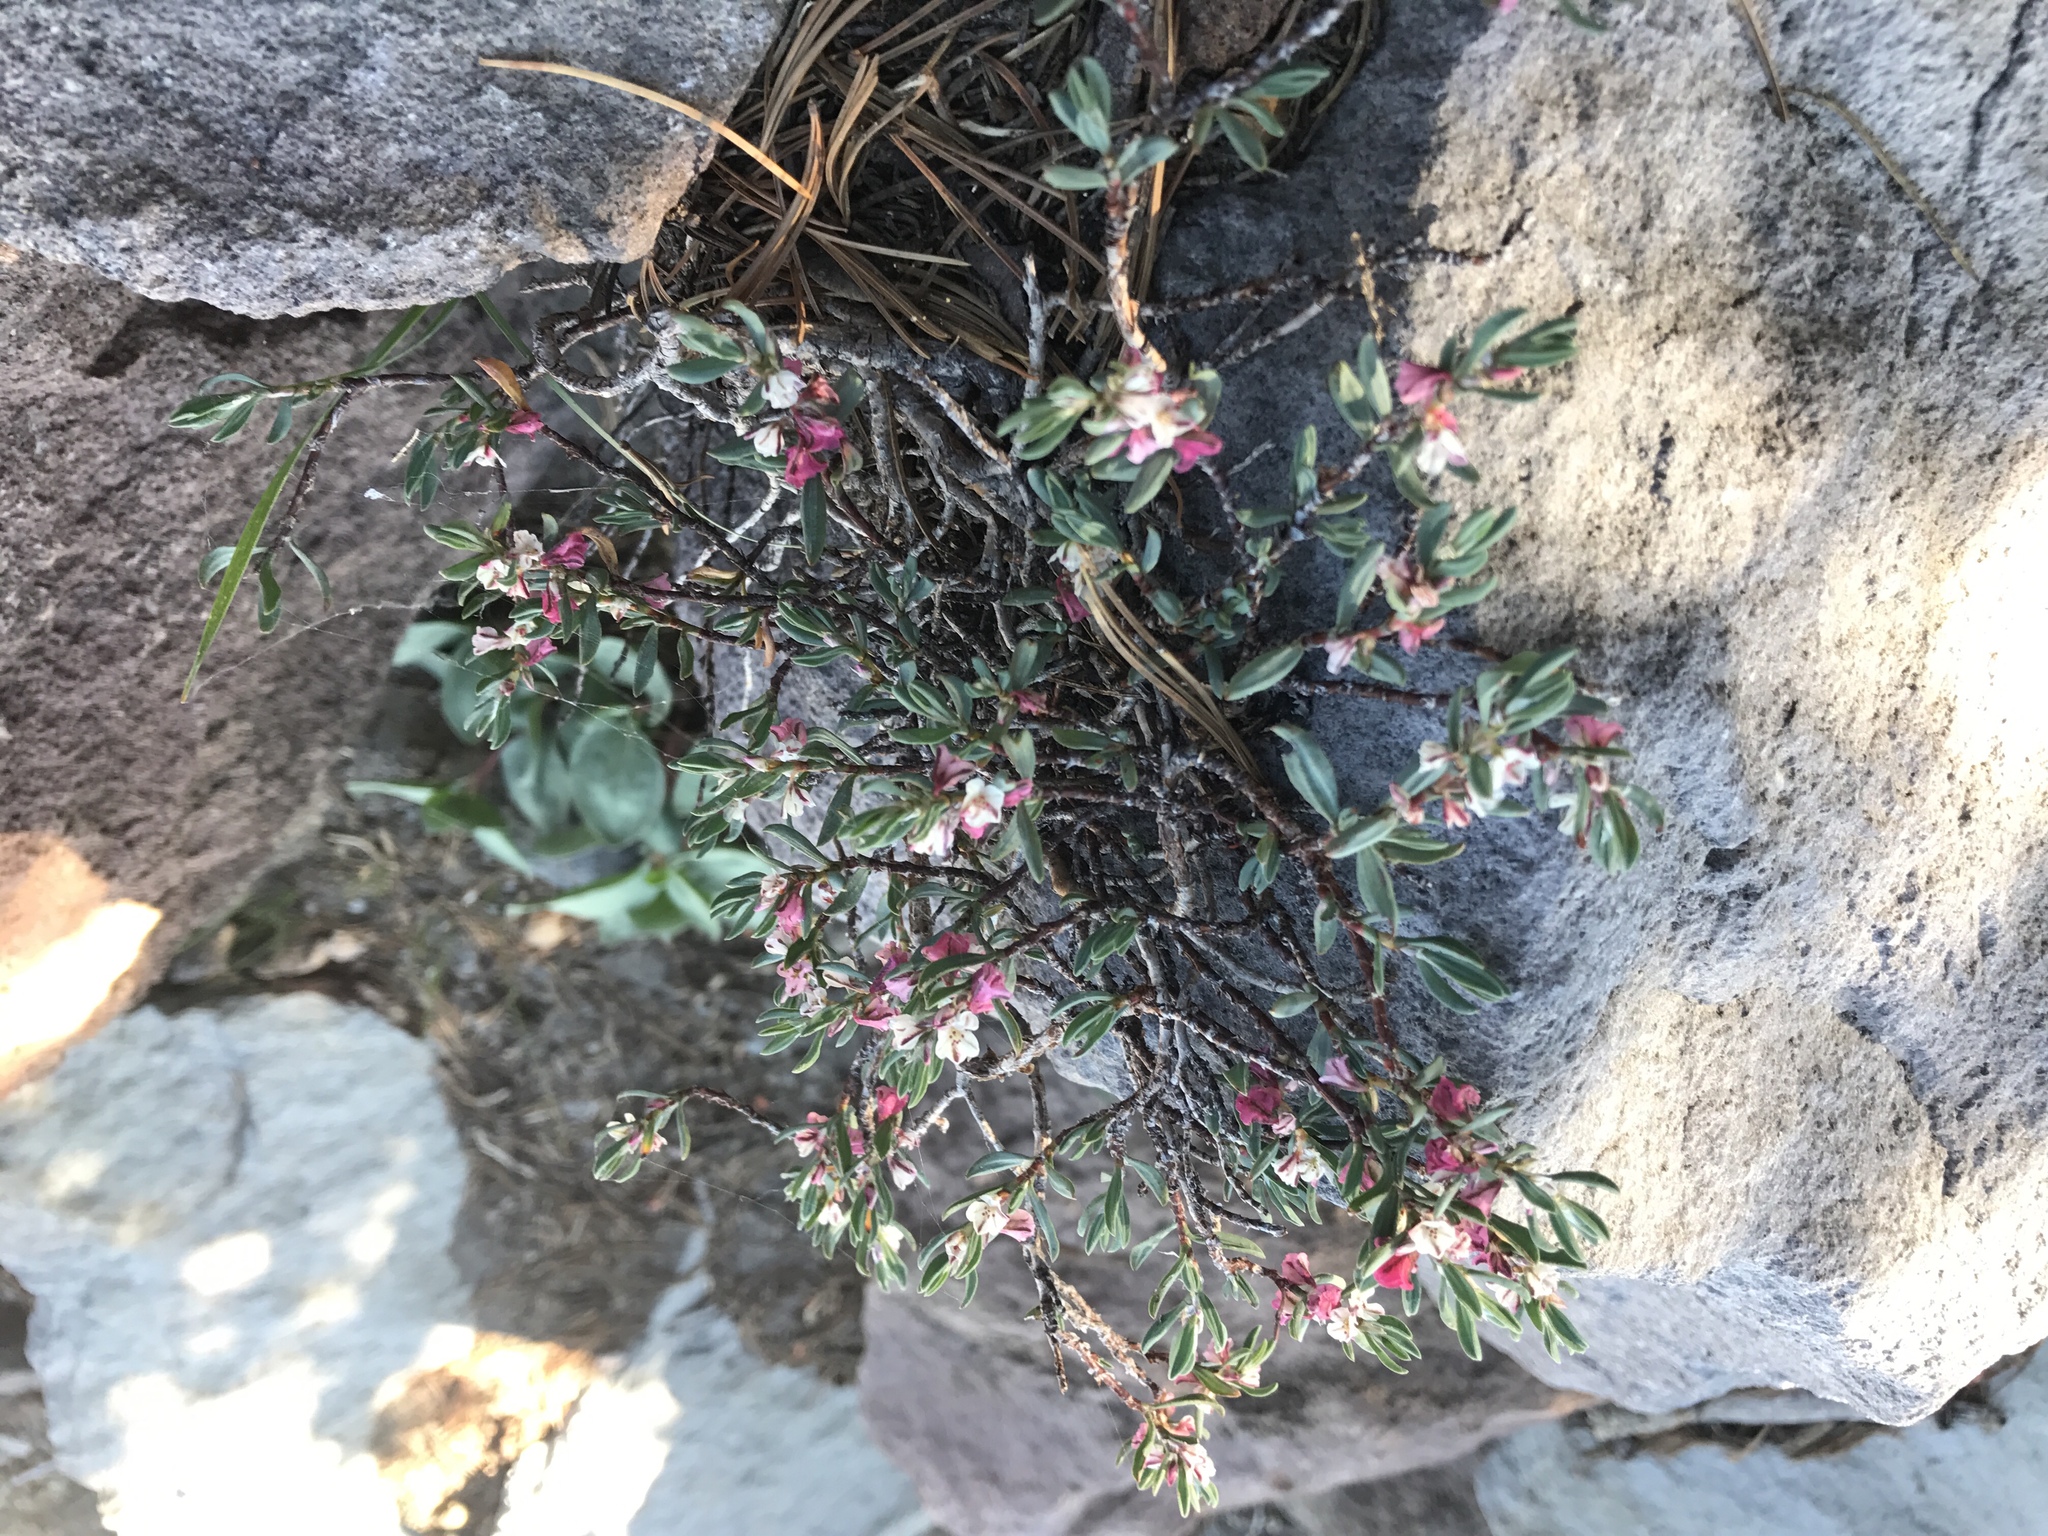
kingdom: Plantae
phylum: Tracheophyta
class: Magnoliopsida
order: Caryophyllales
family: Polygonaceae
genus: Polygonum
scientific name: Polygonum shastense
